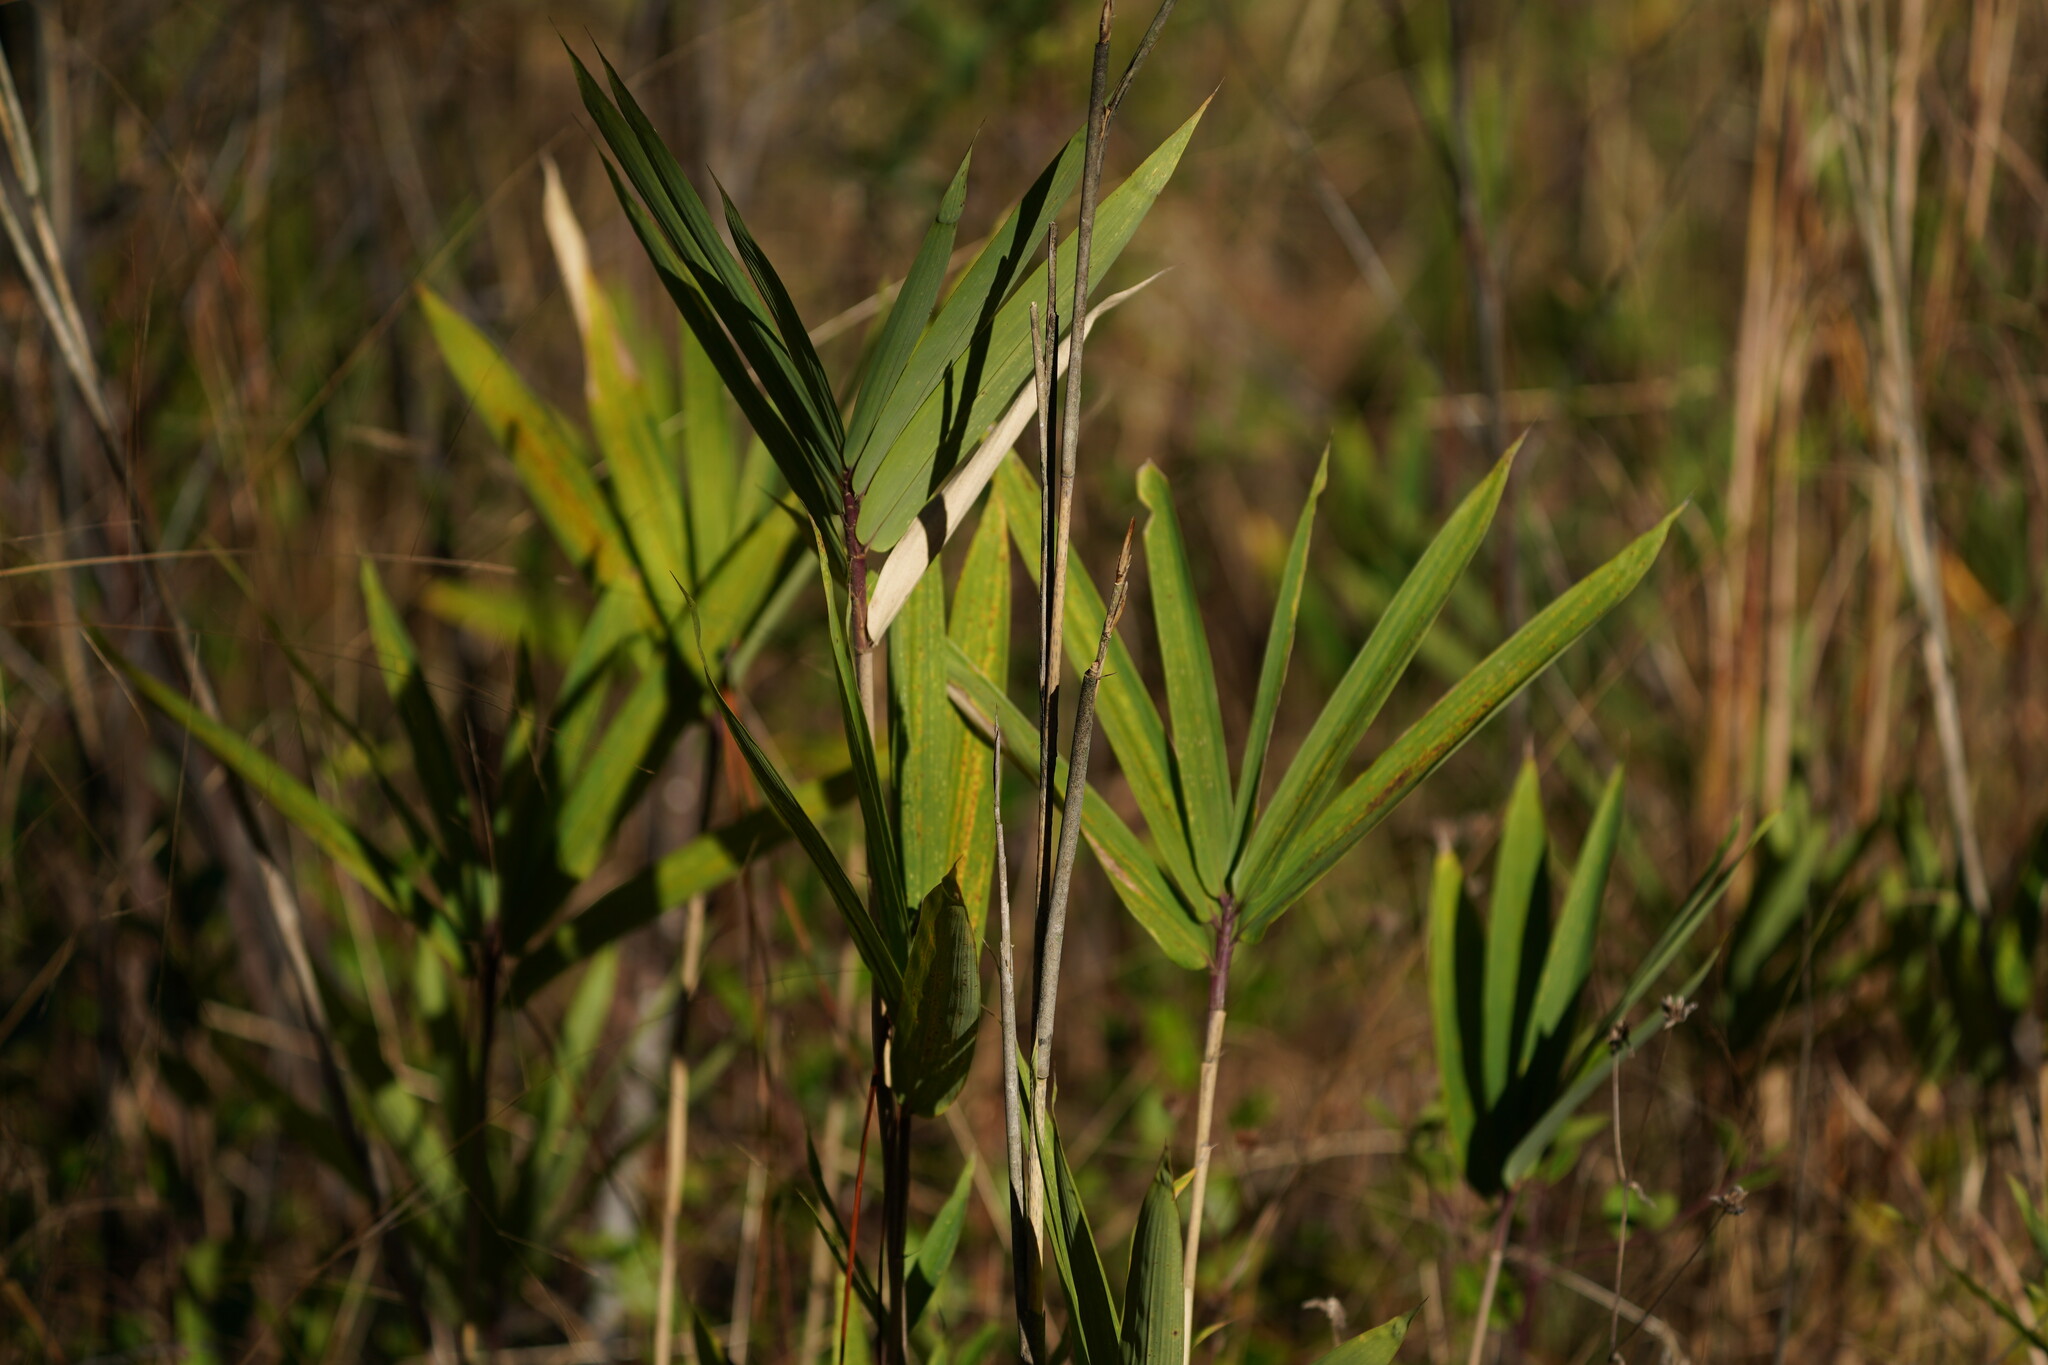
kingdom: Plantae
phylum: Tracheophyta
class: Liliopsida
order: Poales
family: Poaceae
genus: Arundinaria
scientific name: Arundinaria tecta
